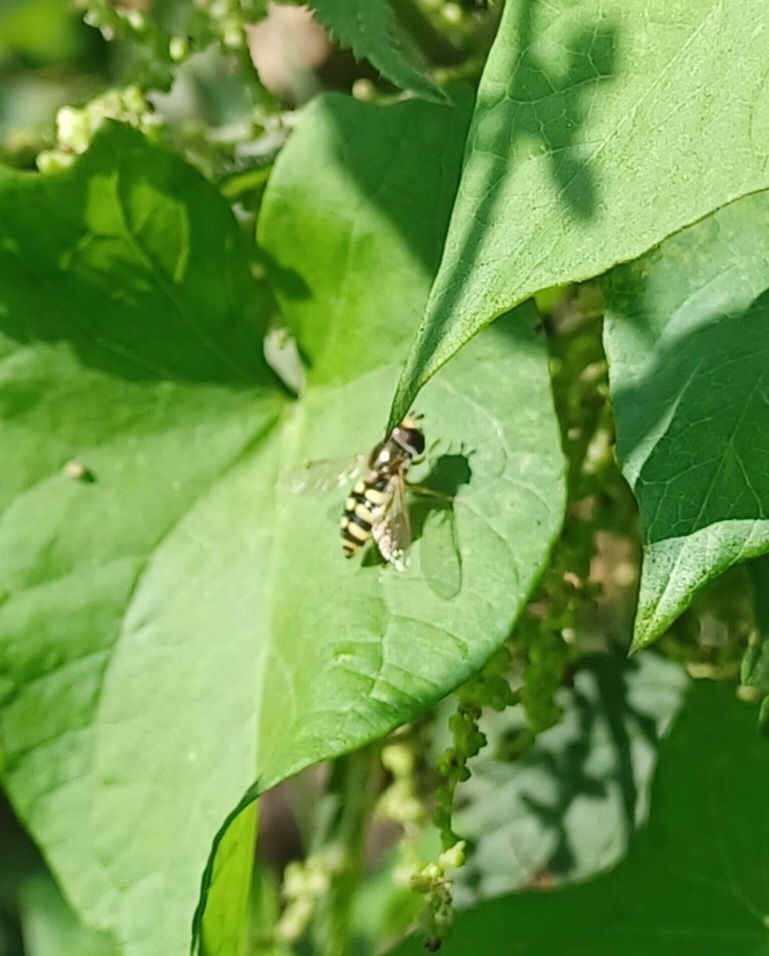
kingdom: Animalia
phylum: Arthropoda
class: Insecta
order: Diptera
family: Syrphidae
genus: Eupeodes
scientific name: Eupeodes corollae
